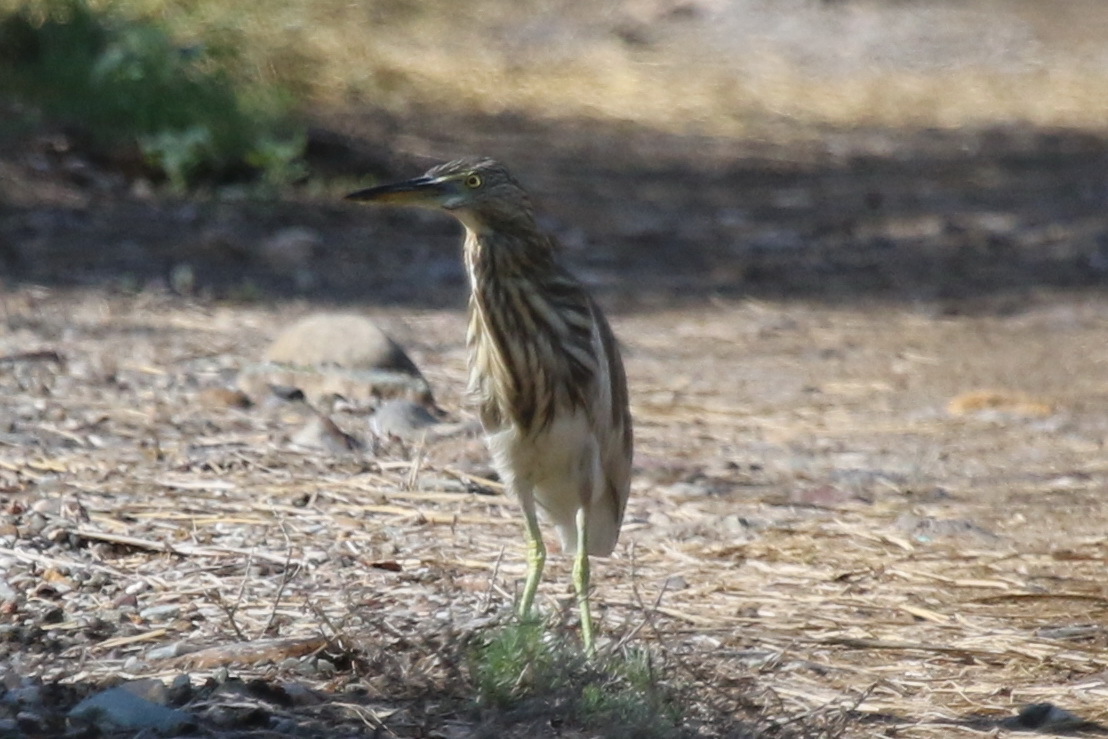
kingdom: Animalia
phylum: Chordata
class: Aves
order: Pelecaniformes
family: Ardeidae
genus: Ardeola
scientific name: Ardeola grayii
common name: Indian pond heron
